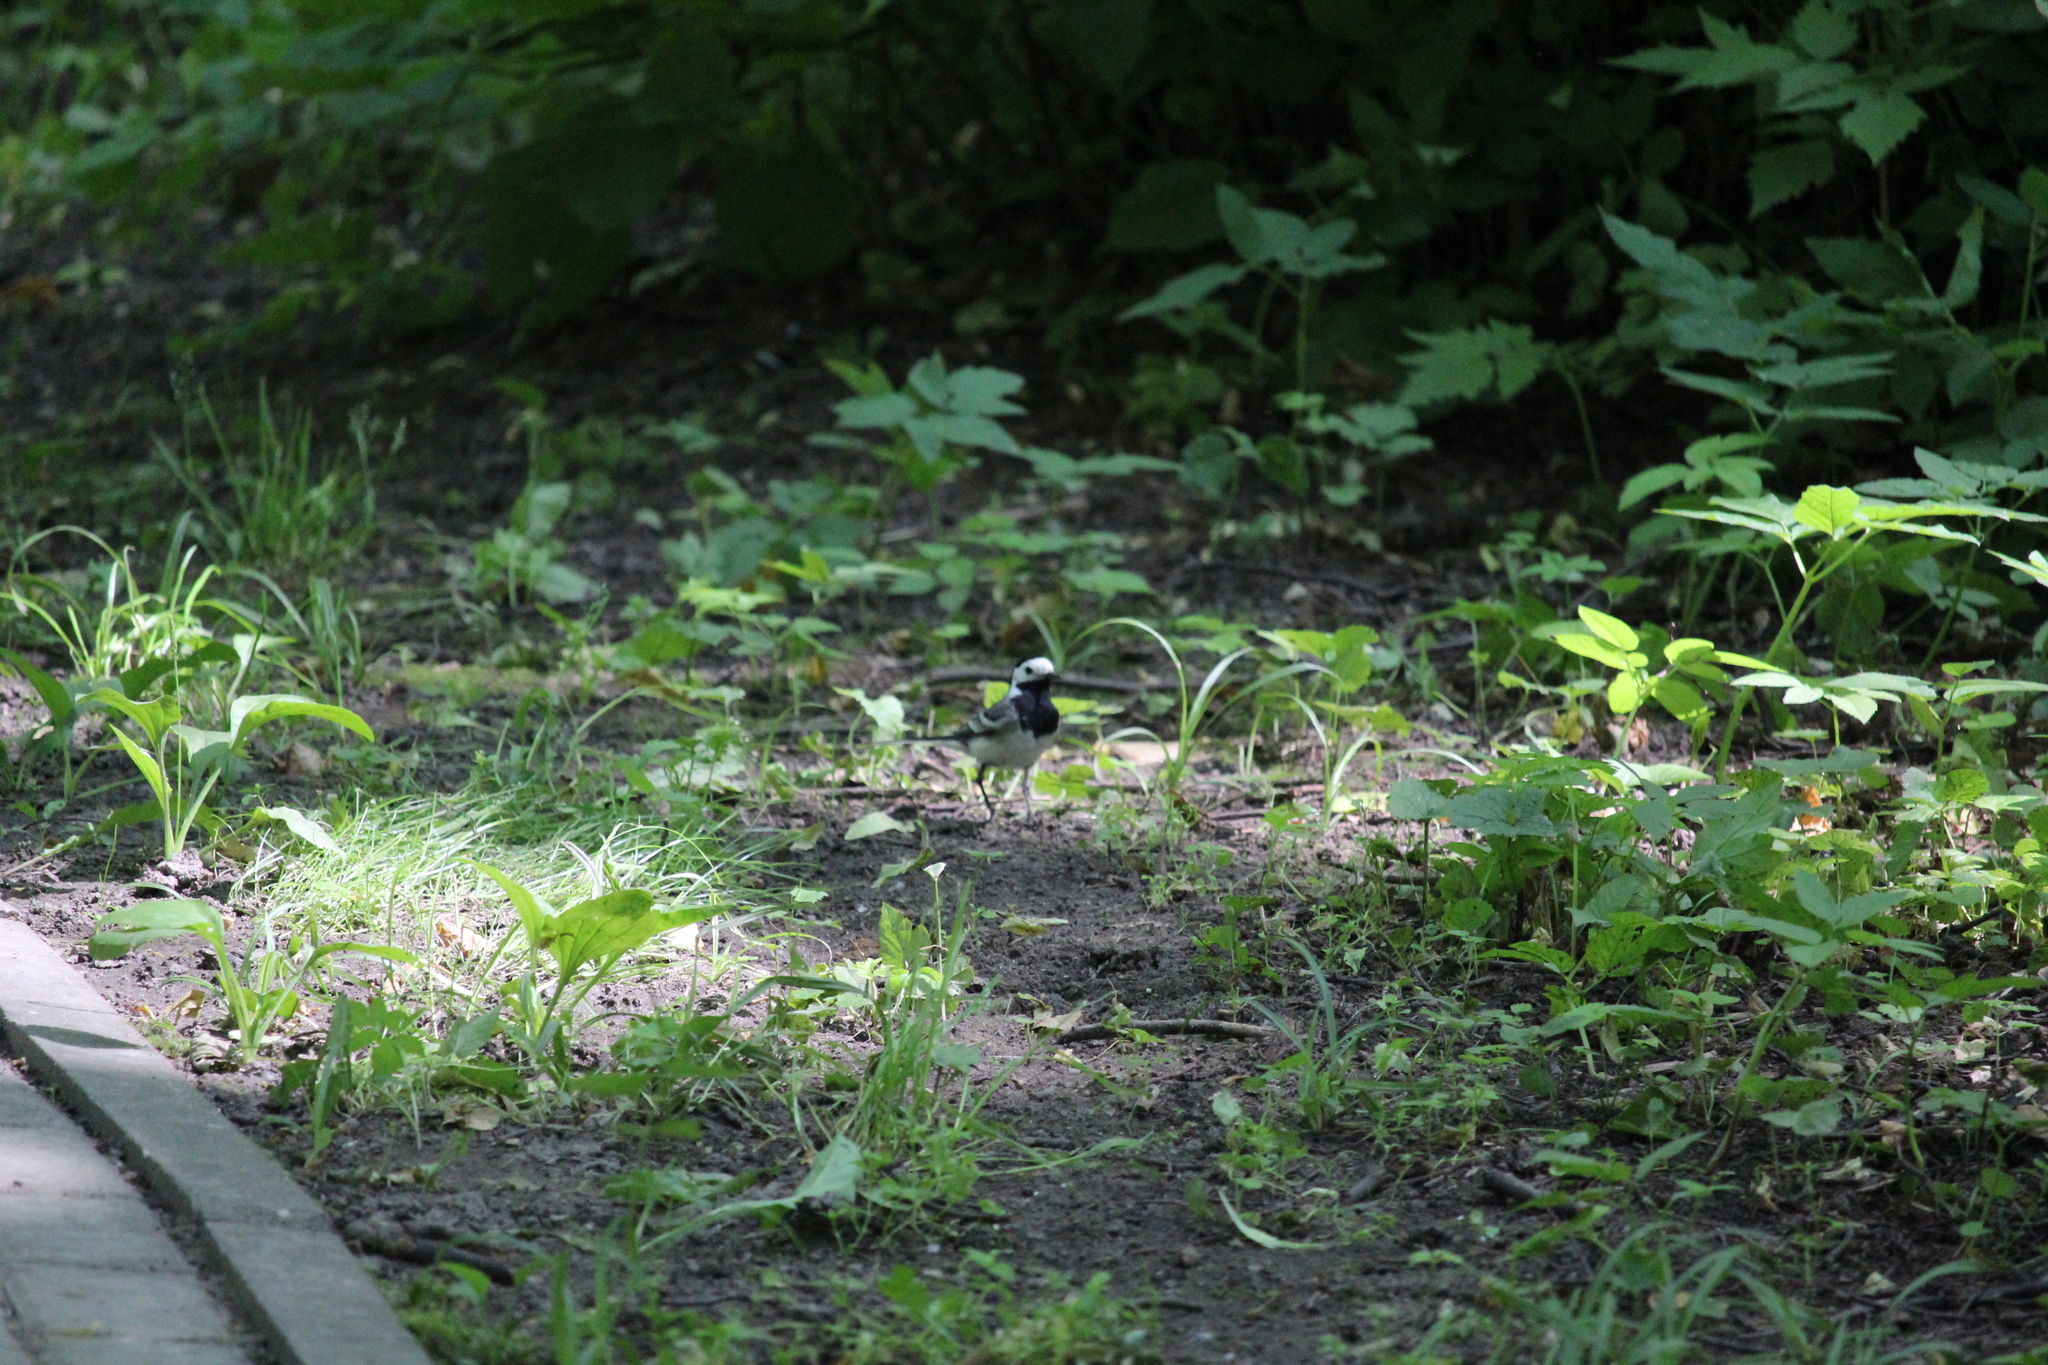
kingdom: Animalia
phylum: Chordata
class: Aves
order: Passeriformes
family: Motacillidae
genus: Motacilla
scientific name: Motacilla alba
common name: White wagtail
